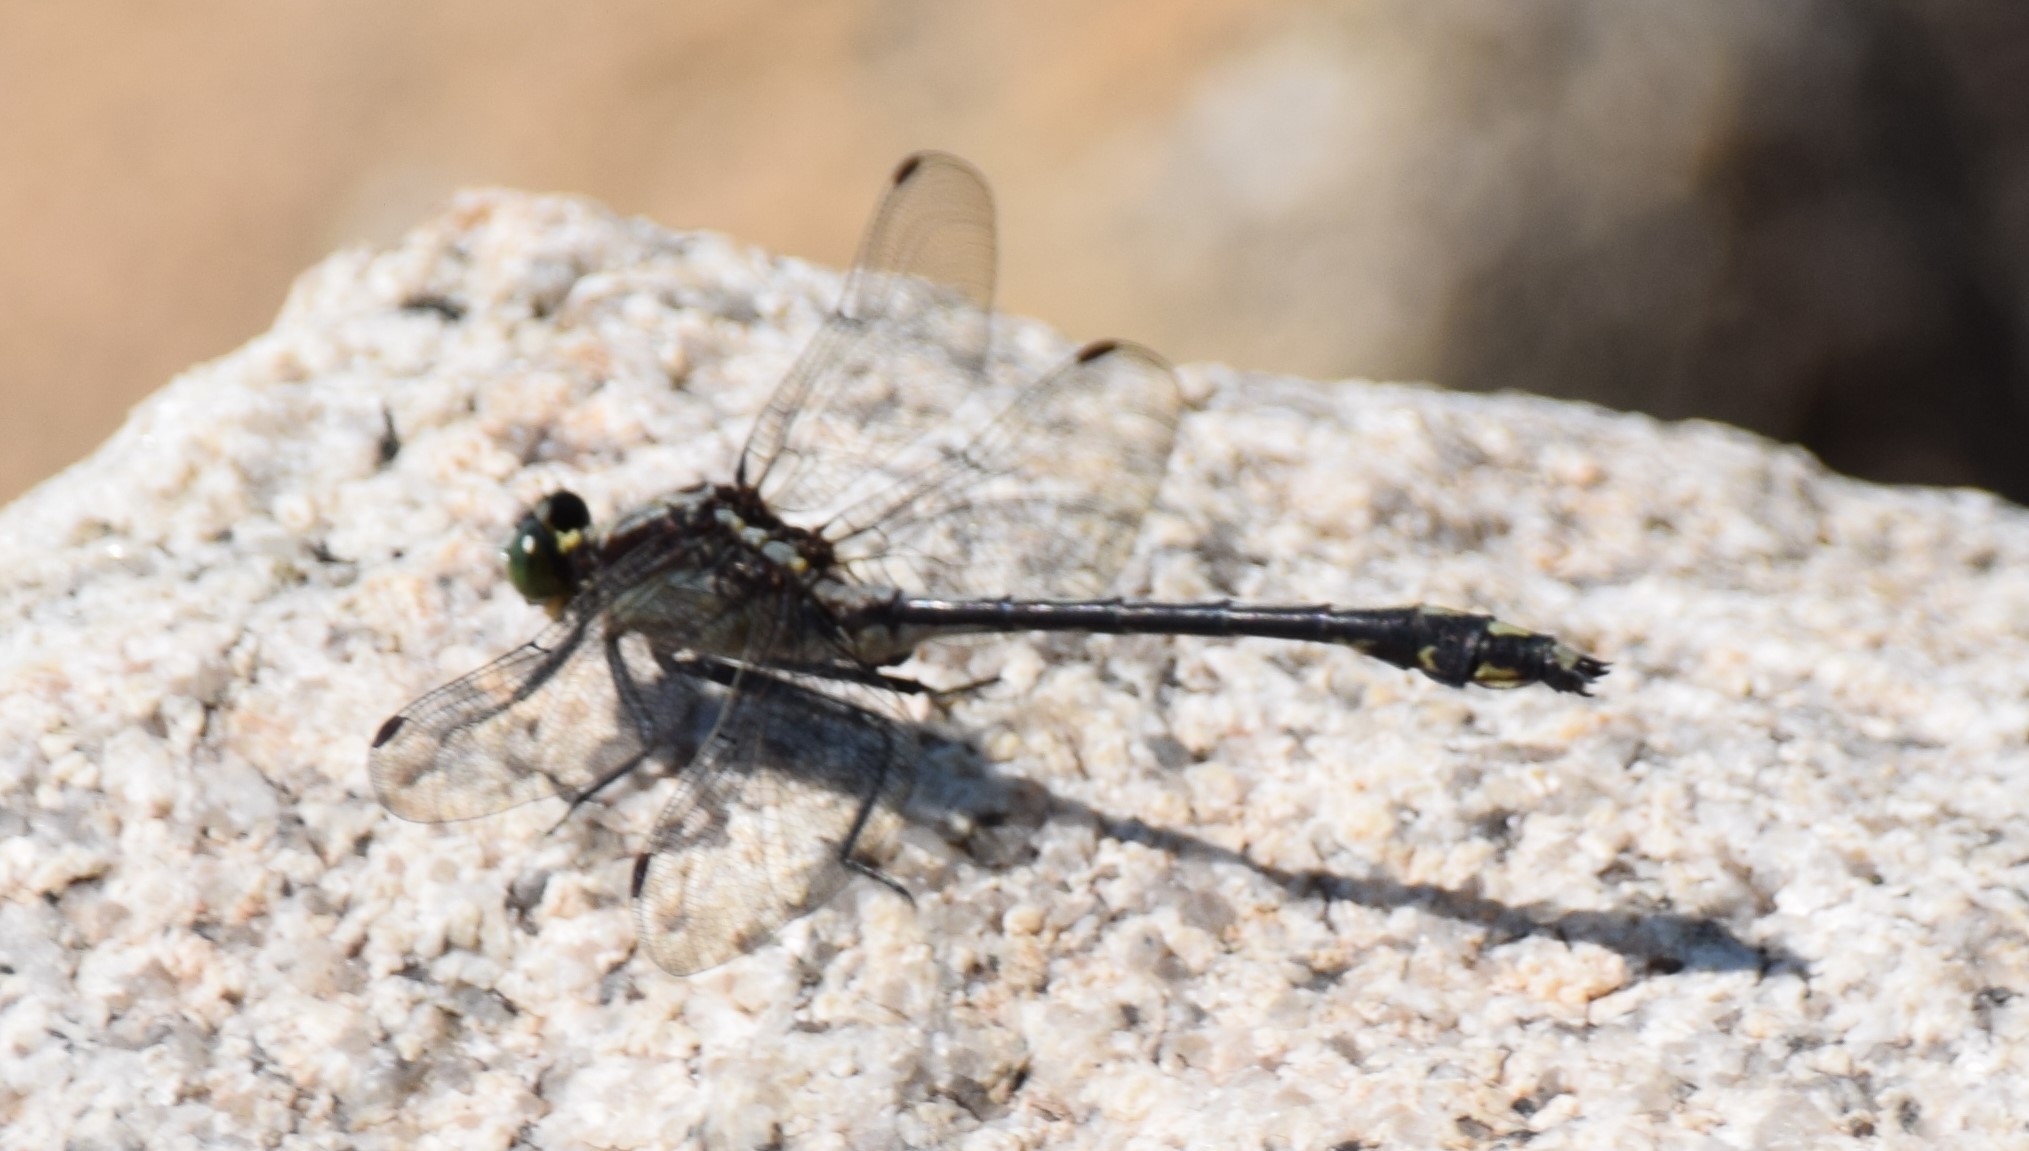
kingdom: Animalia
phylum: Arthropoda
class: Insecta
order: Odonata
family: Gomphidae
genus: Dromogomphus
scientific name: Dromogomphus spinosus
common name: Black-shouldered spinyleg
